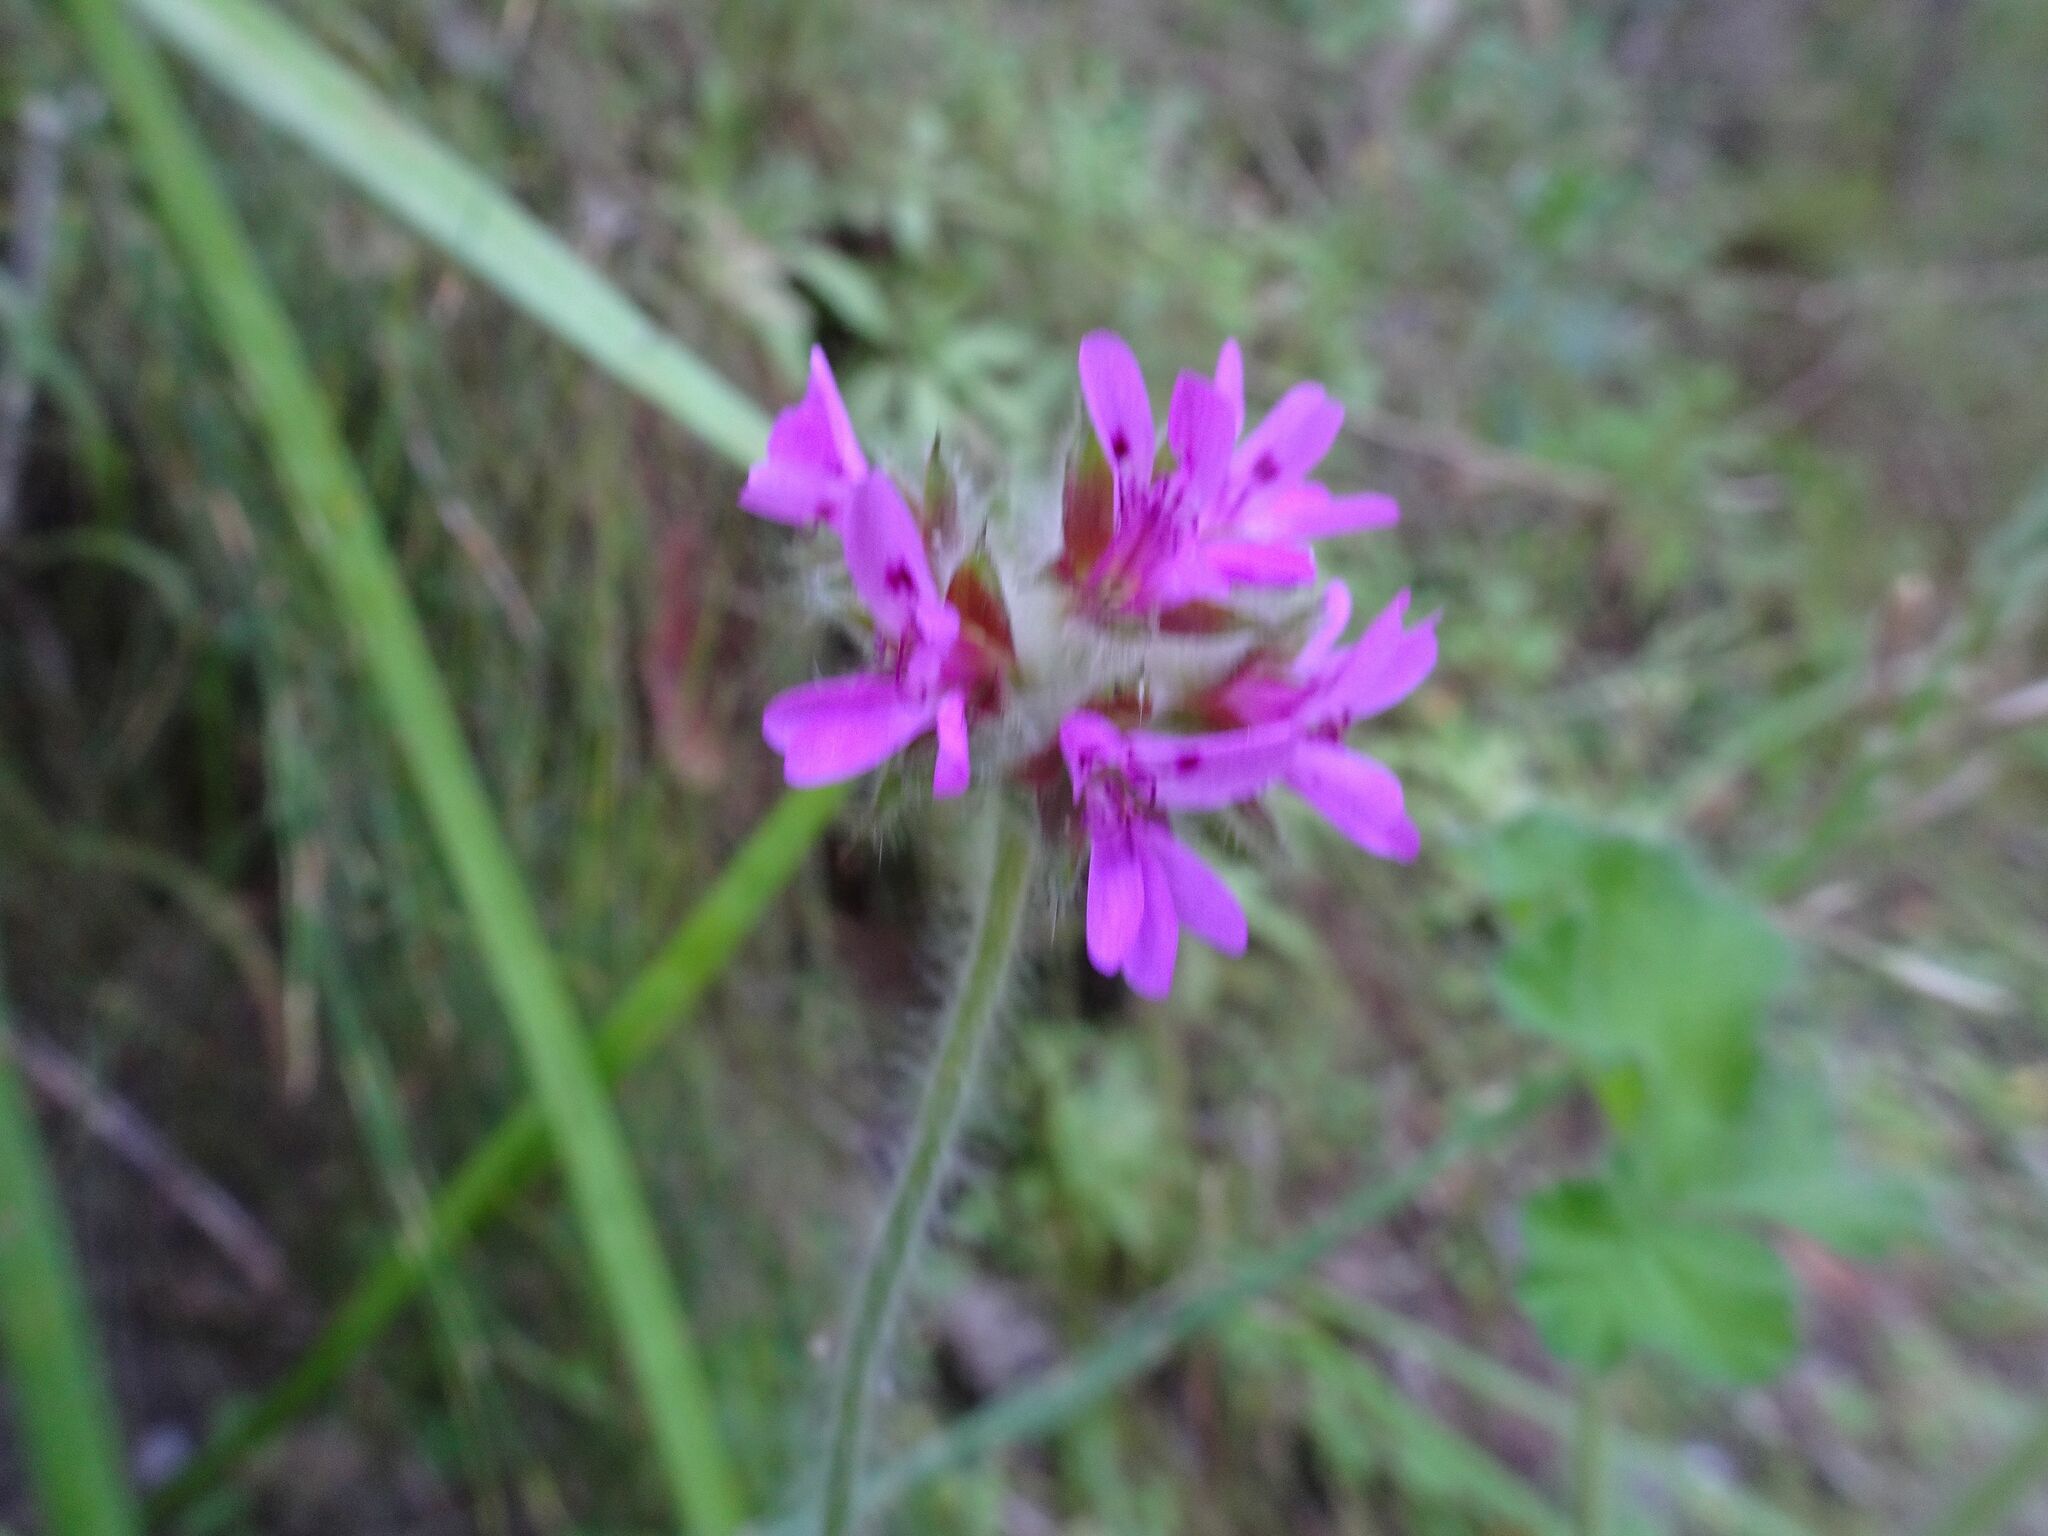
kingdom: Plantae
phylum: Tracheophyta
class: Magnoliopsida
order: Geraniales
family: Geraniaceae
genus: Pelargonium
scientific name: Pelargonium capitatum
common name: Rose scented geranium
